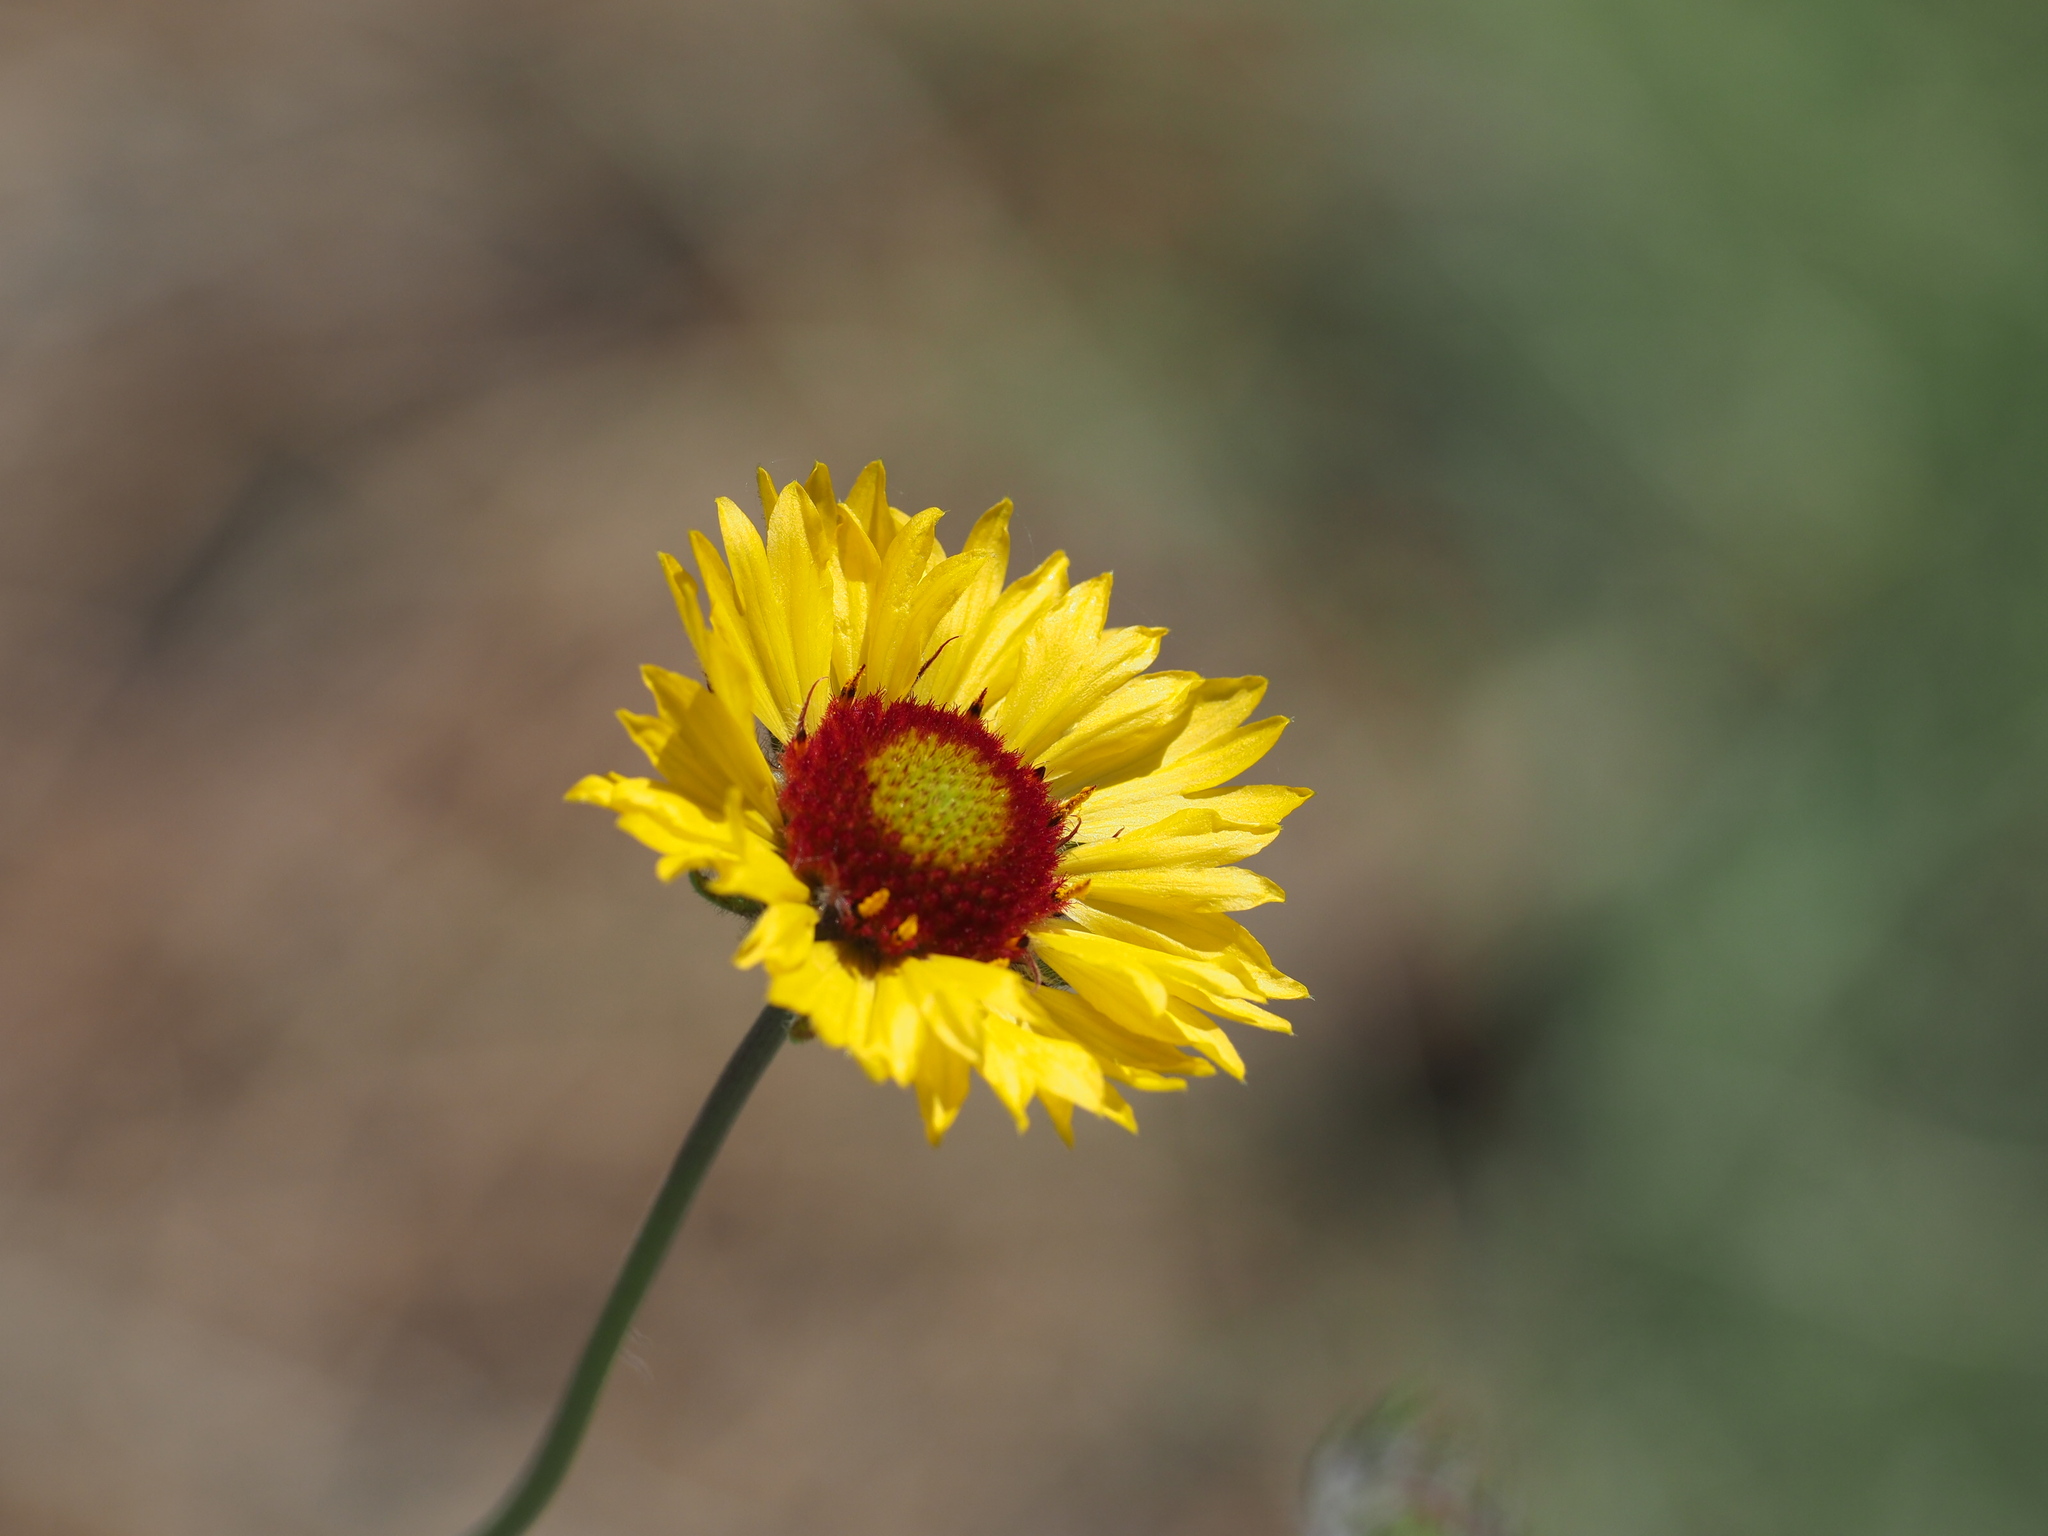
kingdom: Plantae
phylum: Tracheophyta
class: Magnoliopsida
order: Asterales
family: Asteraceae
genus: Gaillardia
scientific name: Gaillardia aristata
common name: Blanket-flower
